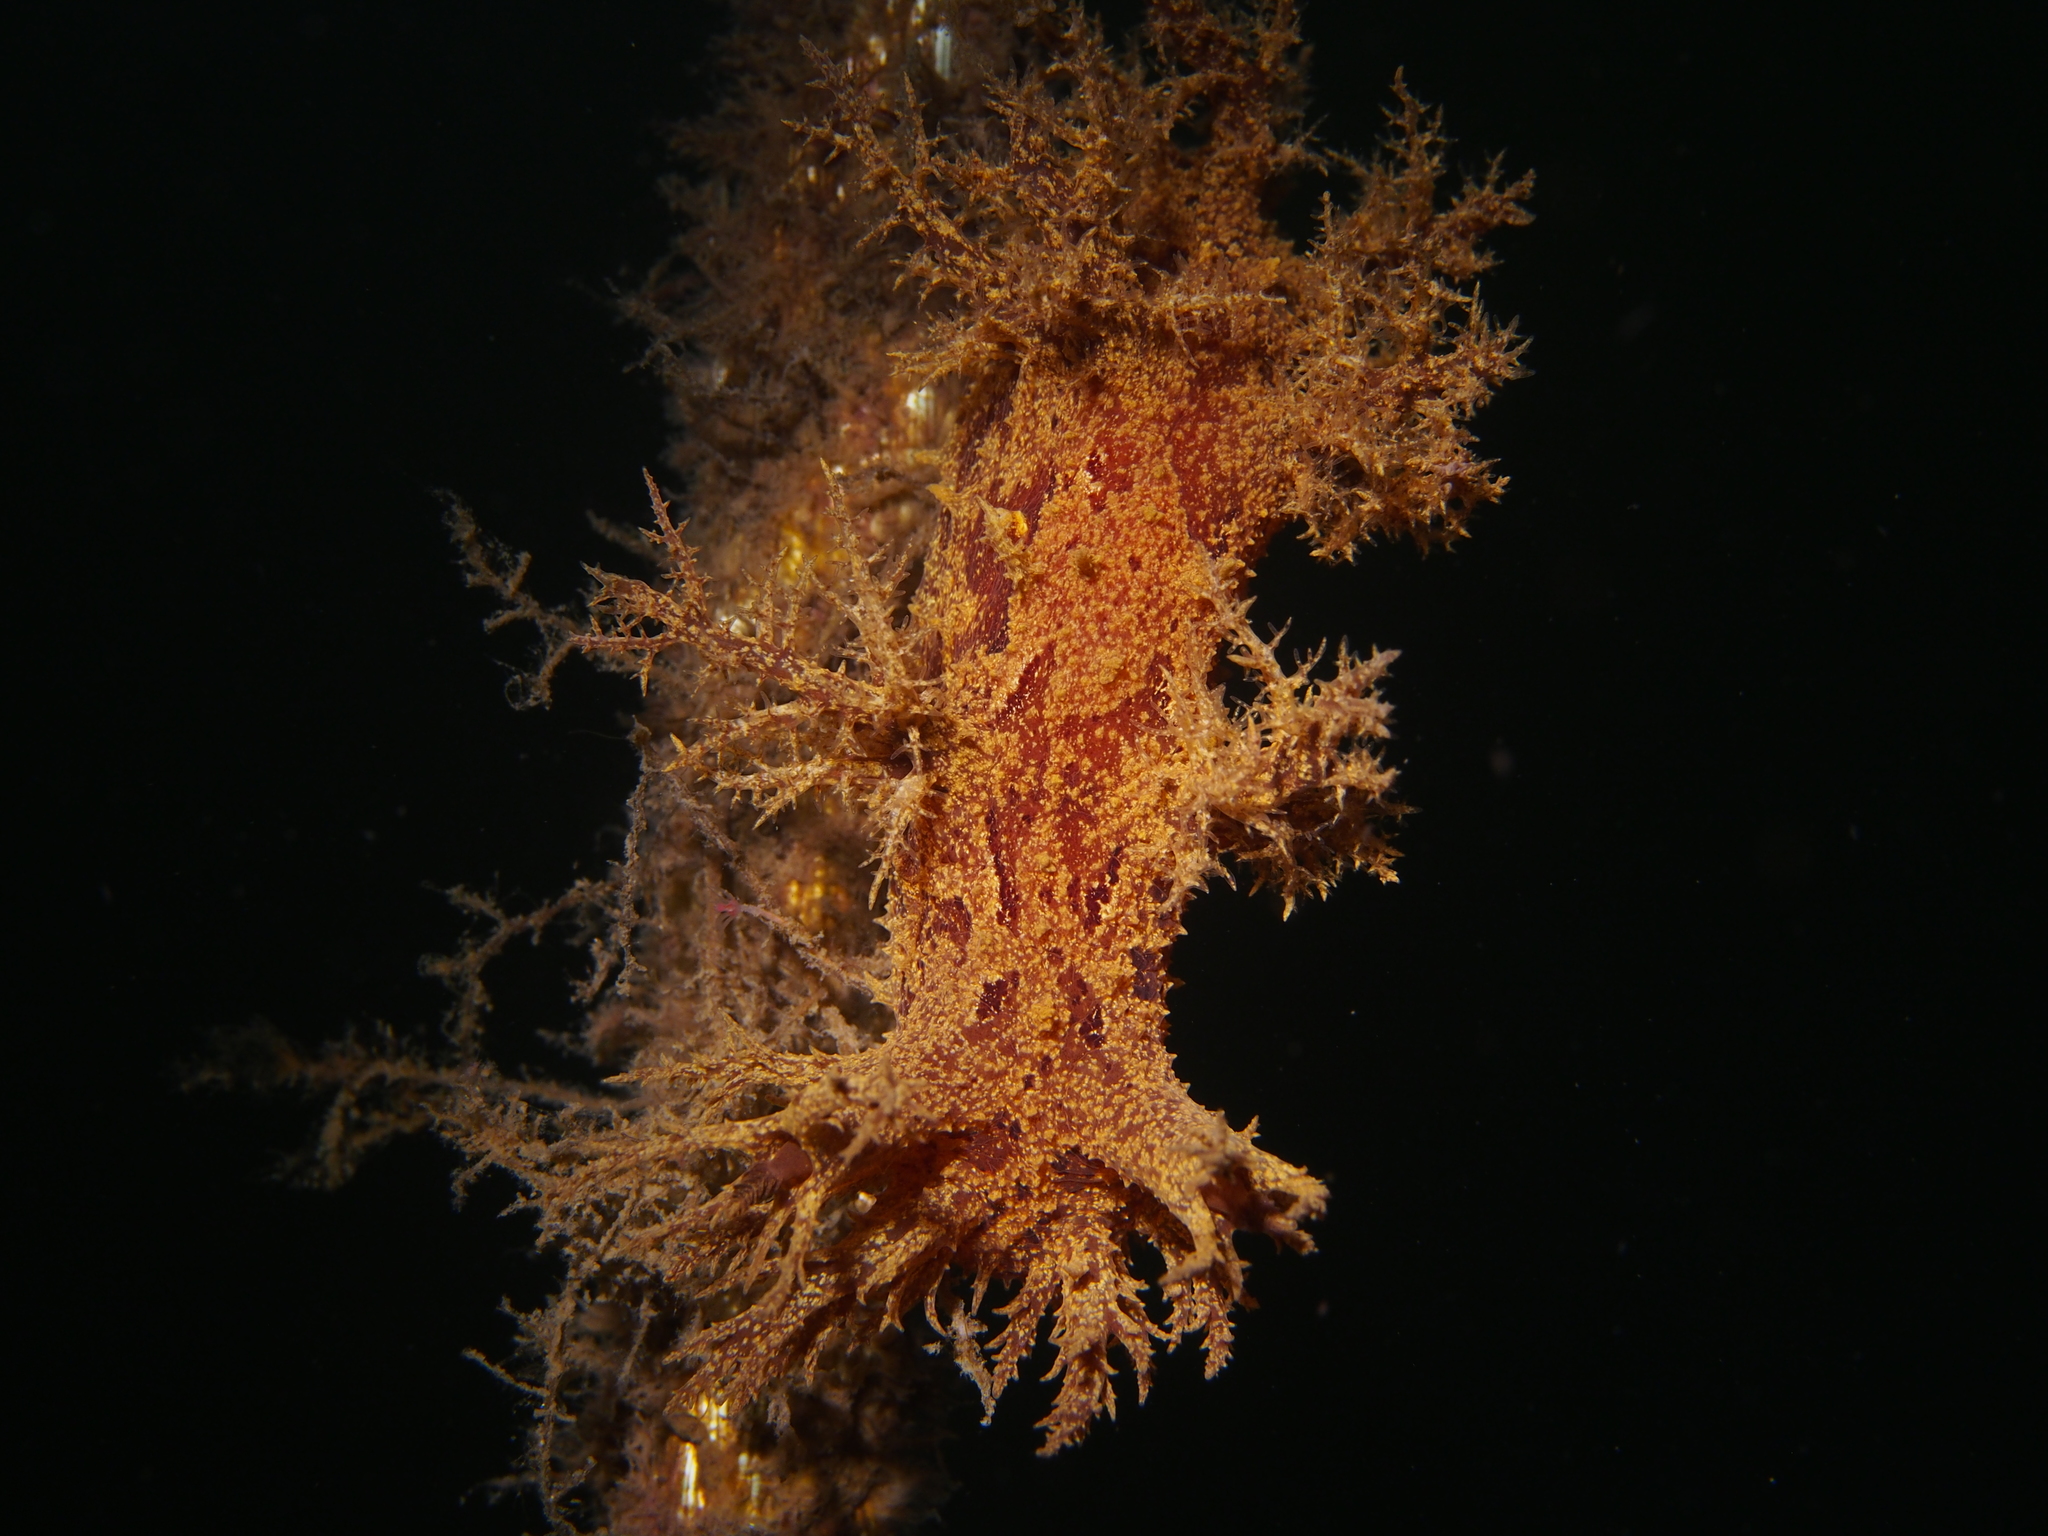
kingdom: Animalia
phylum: Mollusca
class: Gastropoda
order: Nudibranchia
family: Dendronotidae
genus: Dendronotus
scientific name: Dendronotus europaeus
